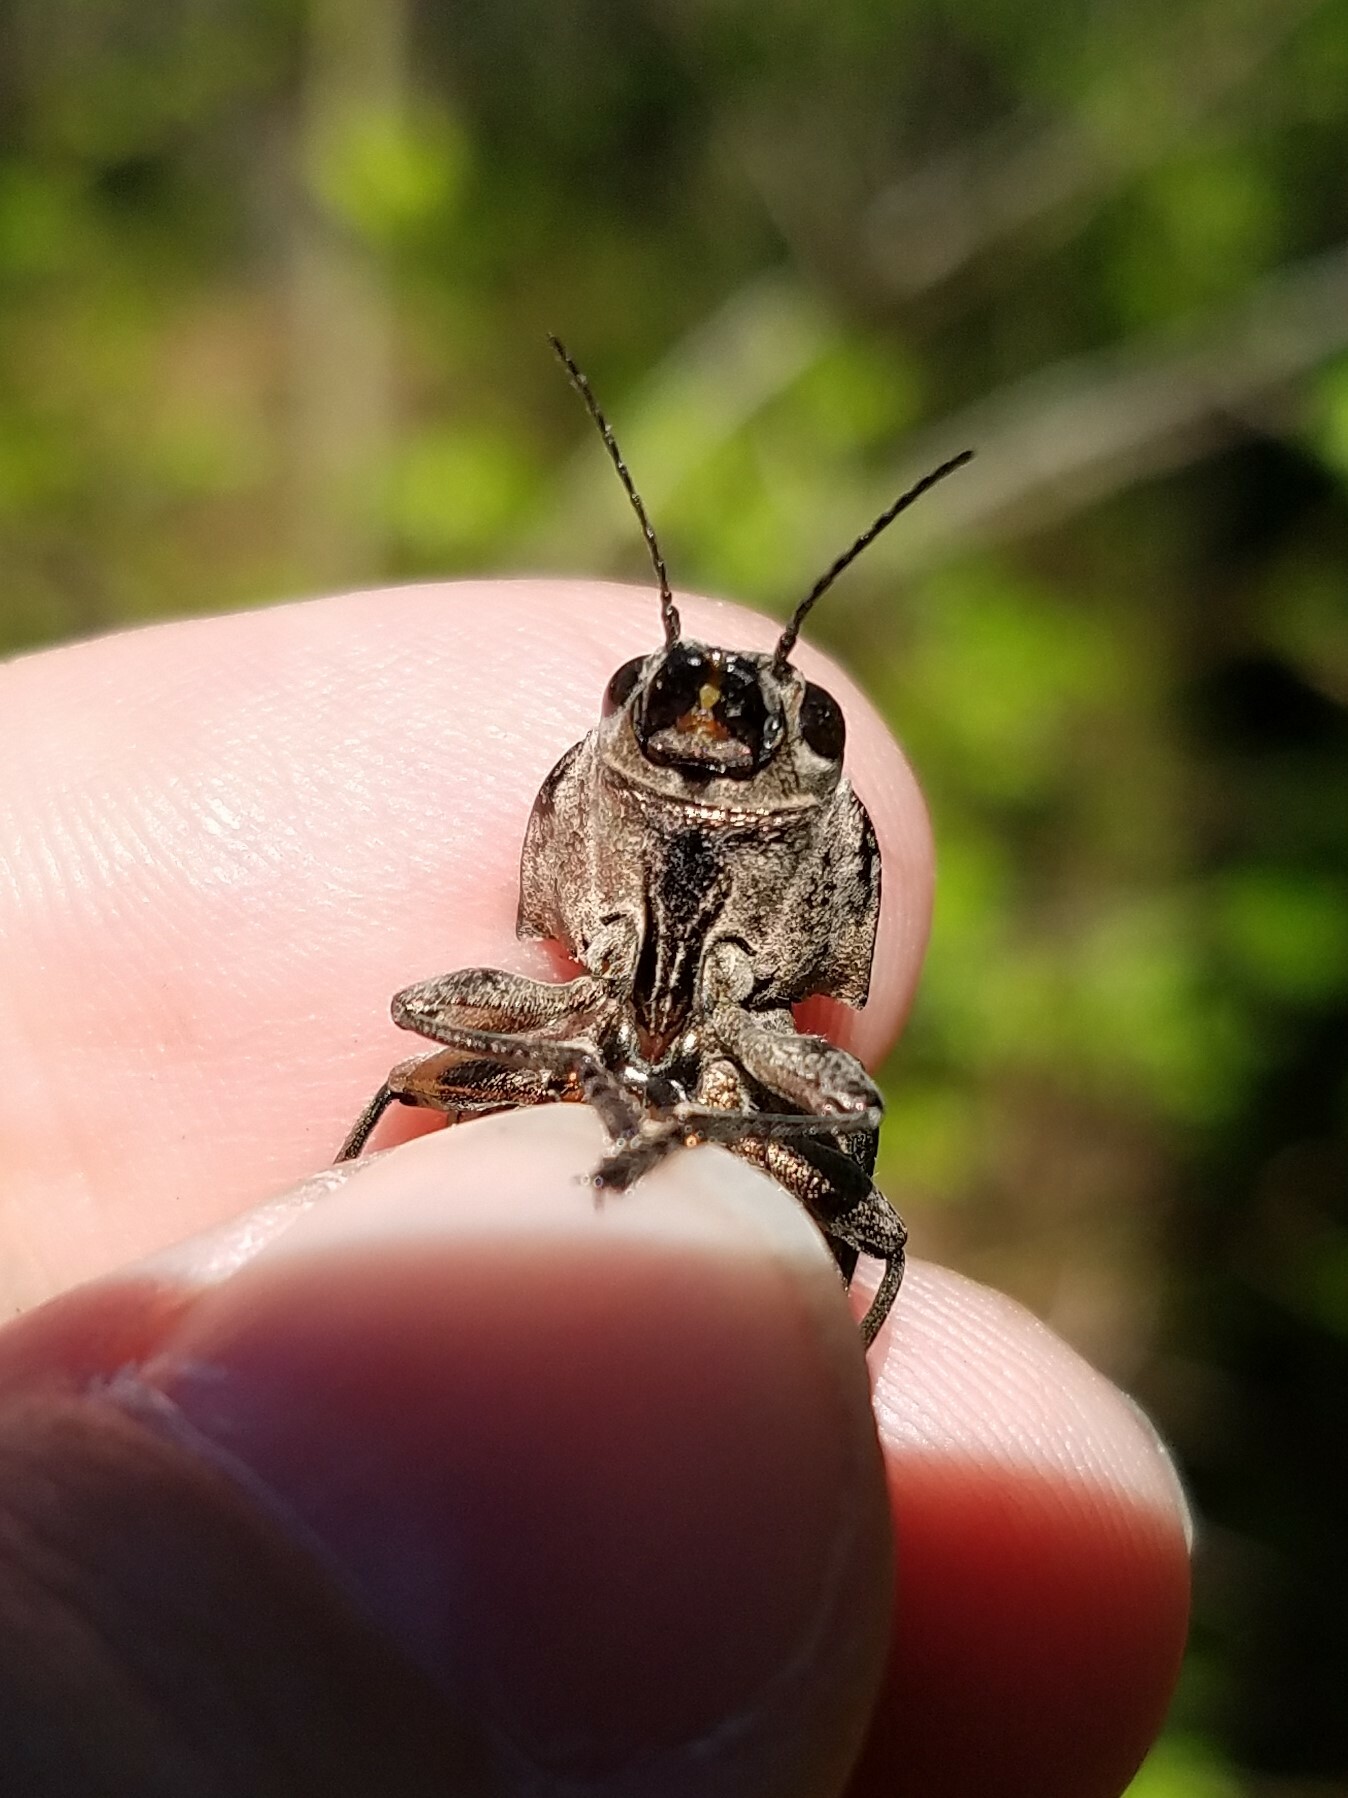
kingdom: Animalia
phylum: Arthropoda
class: Insecta
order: Coleoptera
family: Buprestidae
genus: Chalcophora
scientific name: Chalcophora virginiensis
